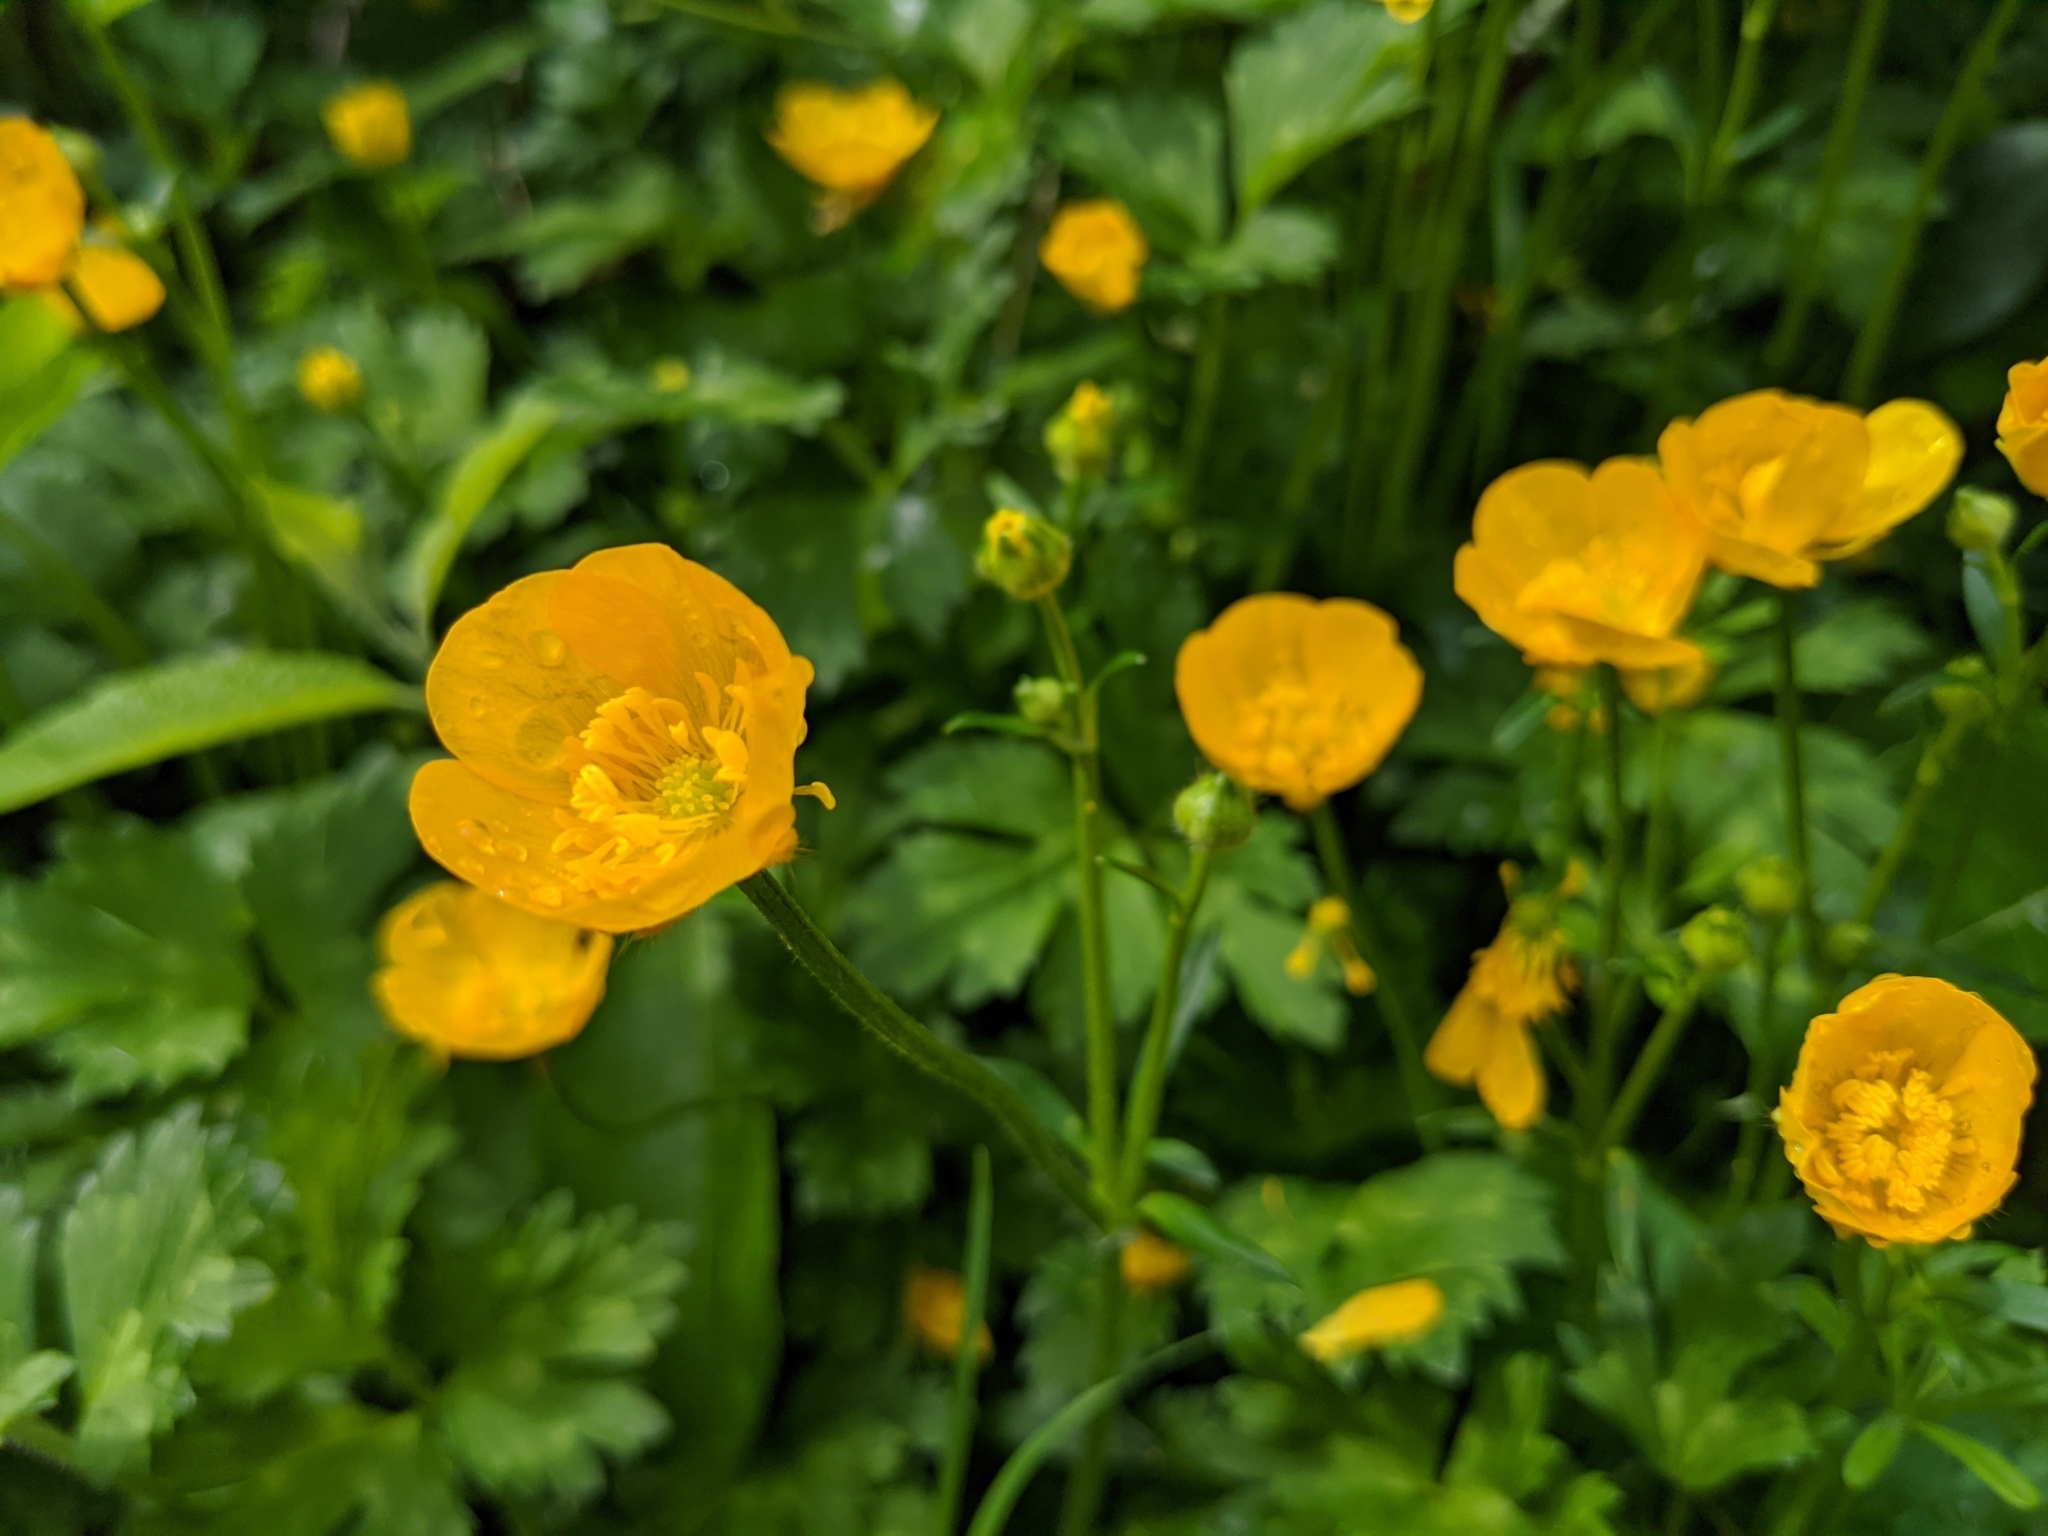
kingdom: Plantae
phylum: Tracheophyta
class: Magnoliopsida
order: Ranunculales
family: Ranunculaceae
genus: Ranunculus
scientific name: Ranunculus repens
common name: Creeping buttercup
